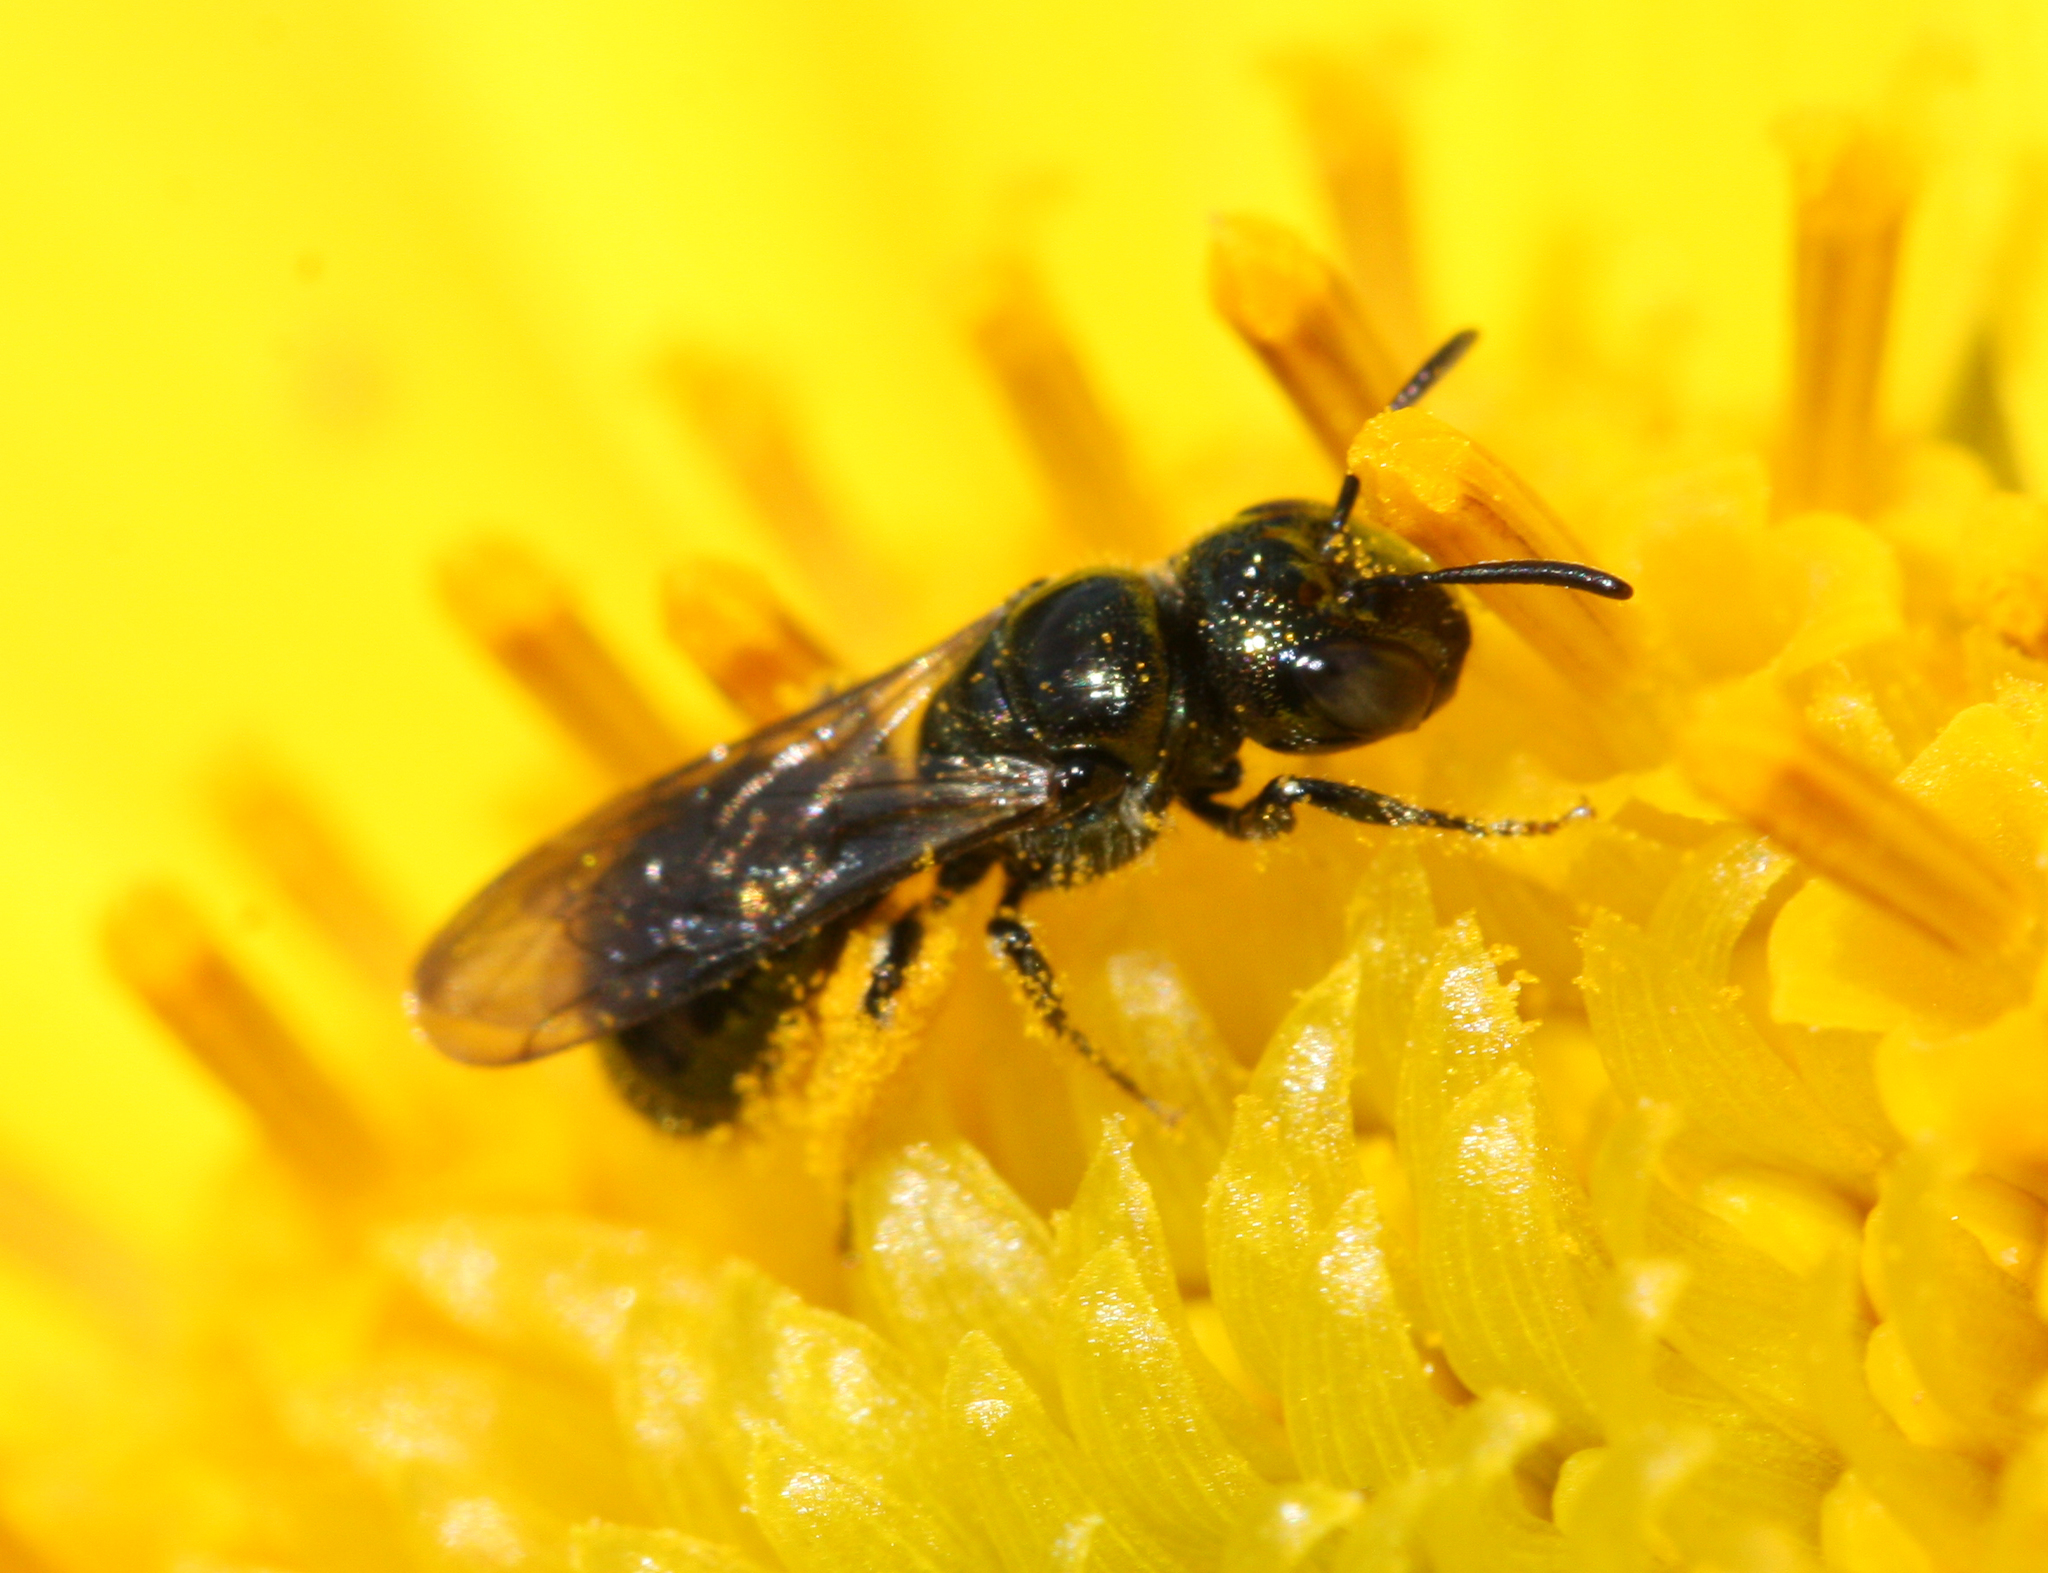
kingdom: Animalia
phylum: Arthropoda
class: Insecta
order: Hymenoptera
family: Apidae
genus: Zadontomerus
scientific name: Zadontomerus
